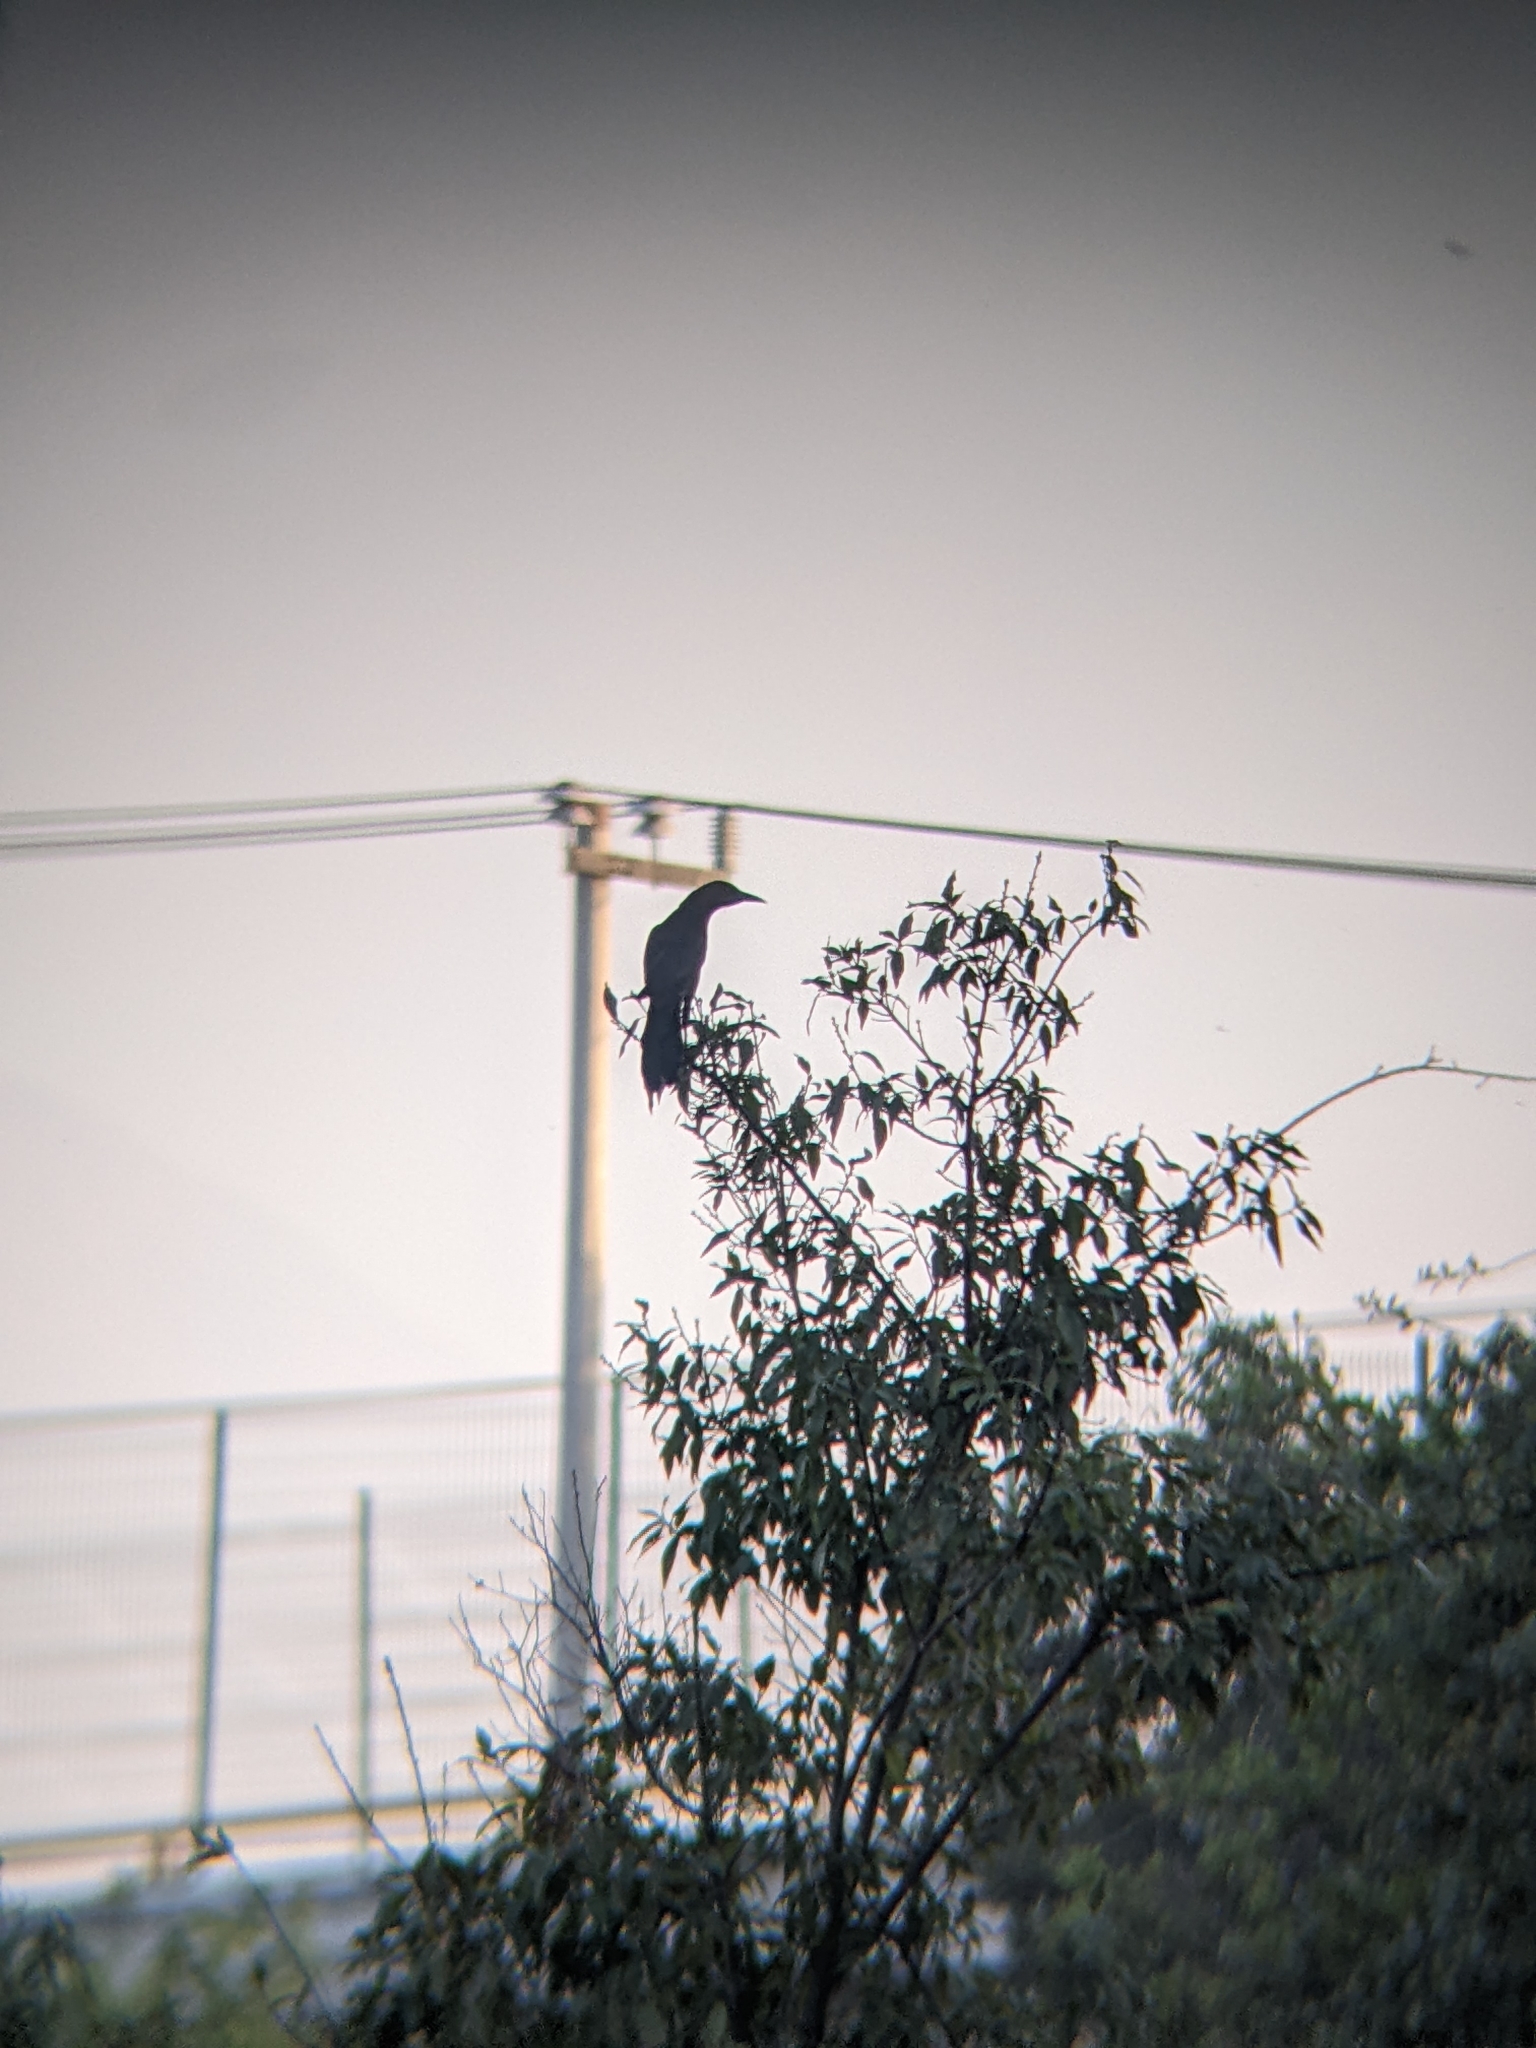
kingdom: Animalia
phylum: Chordata
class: Aves
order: Passeriformes
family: Icteridae
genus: Quiscalus
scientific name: Quiscalus mexicanus
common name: Great-tailed grackle
